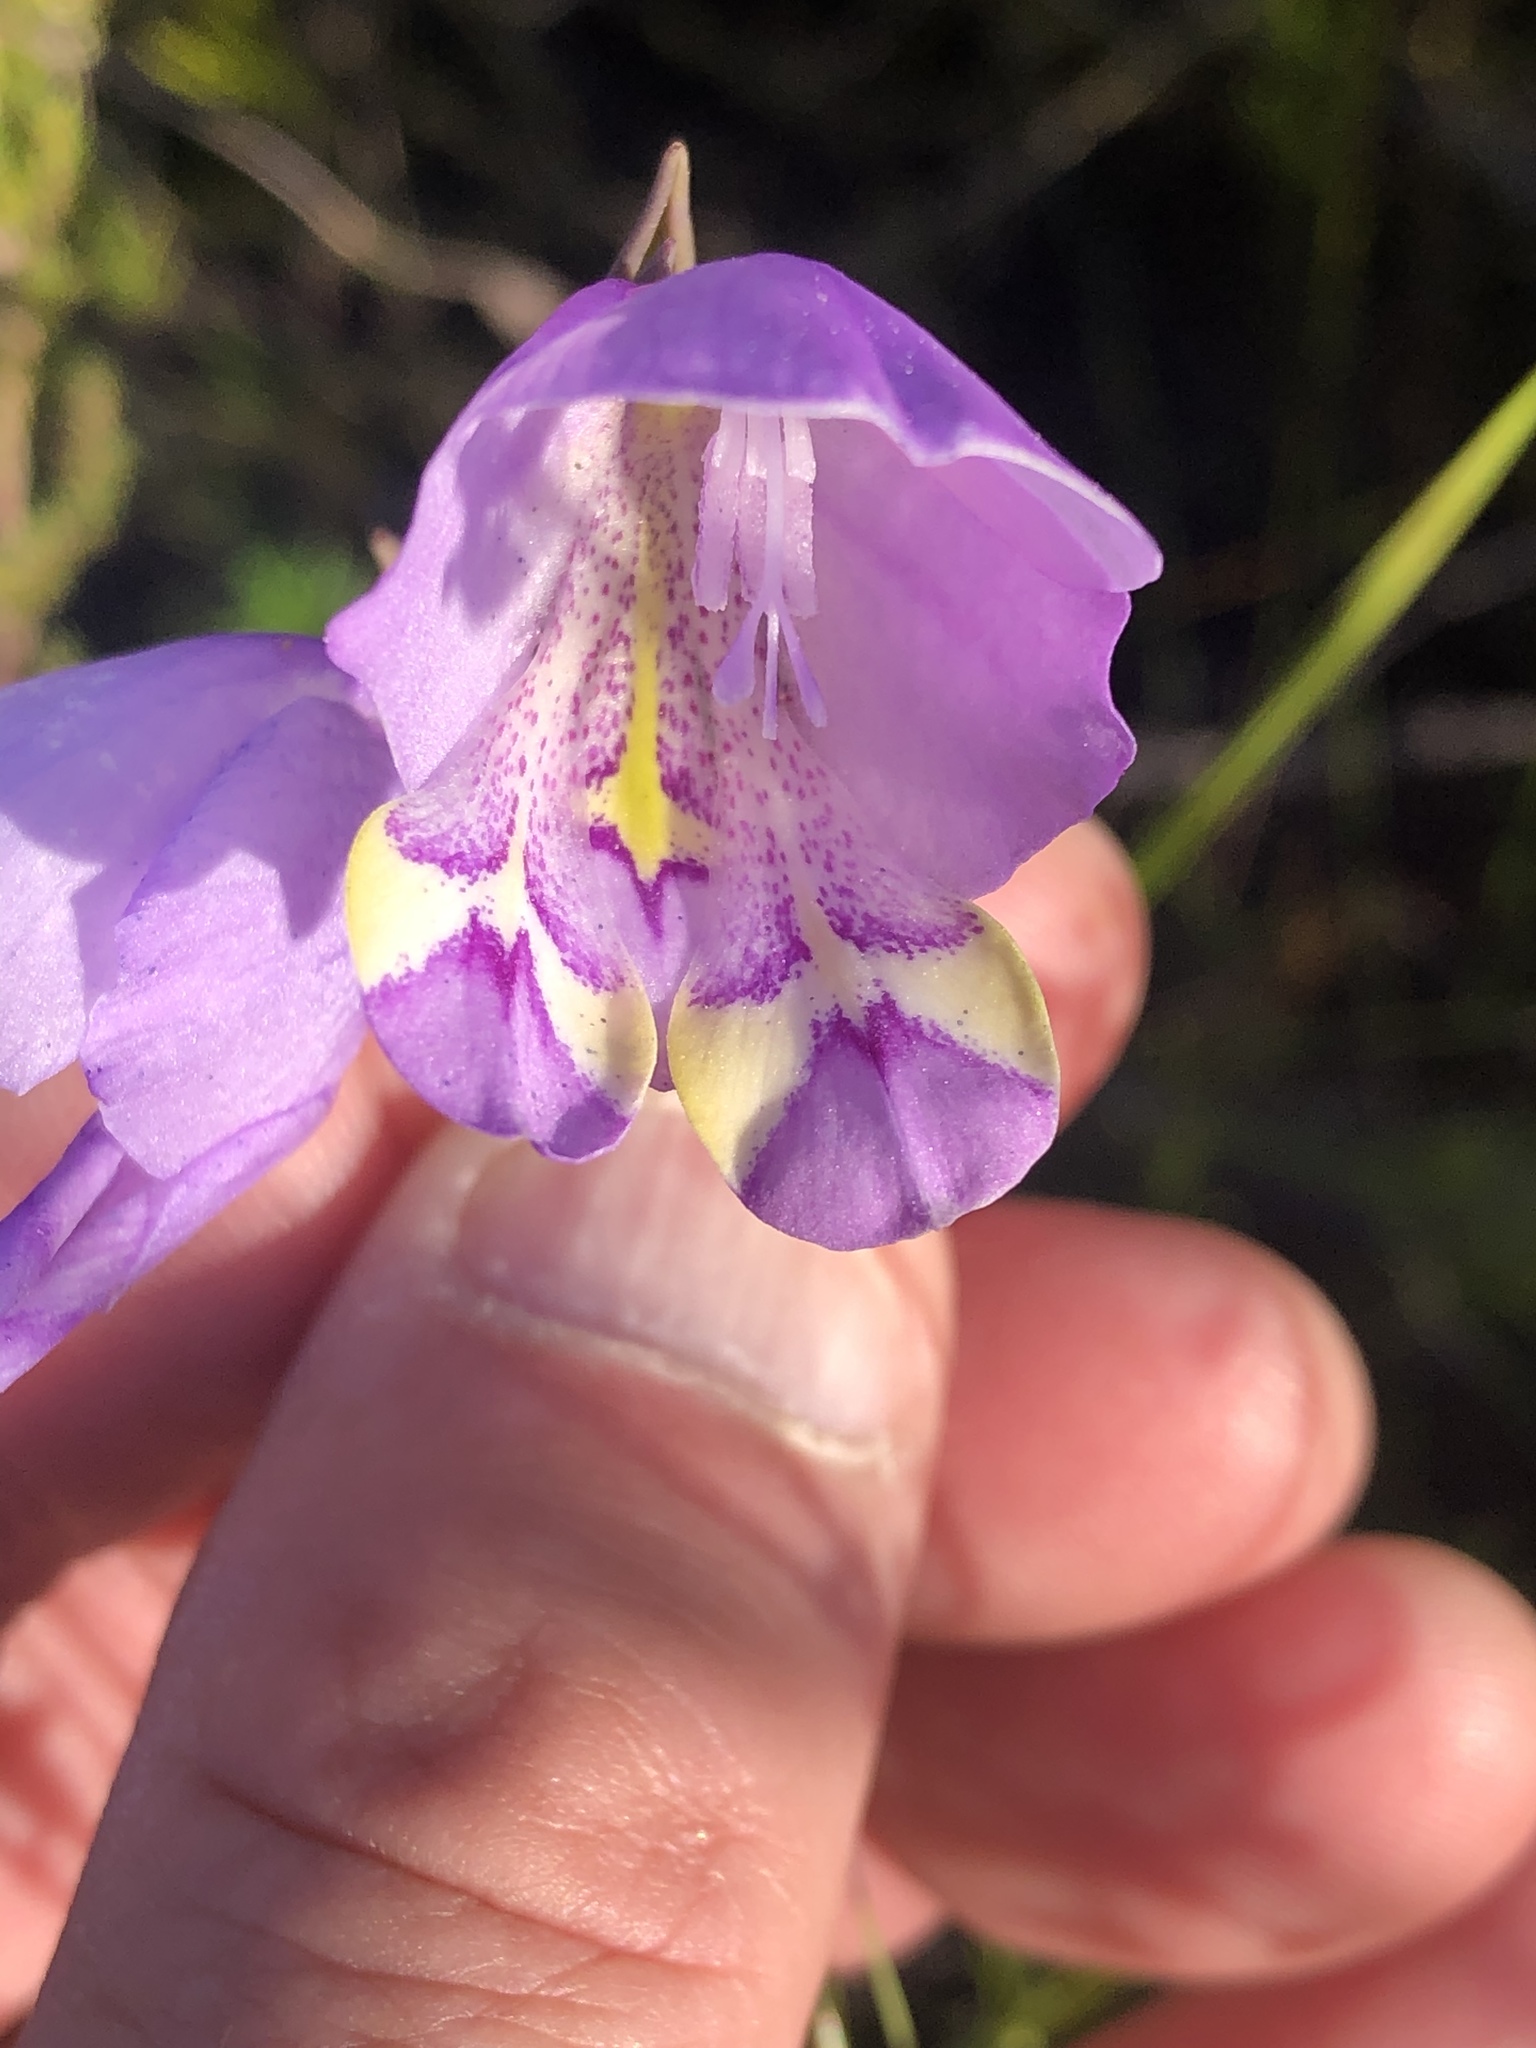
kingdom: Plantae
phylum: Tracheophyta
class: Liliopsida
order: Asparagales
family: Iridaceae
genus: Gladiolus
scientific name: Gladiolus rogersii
